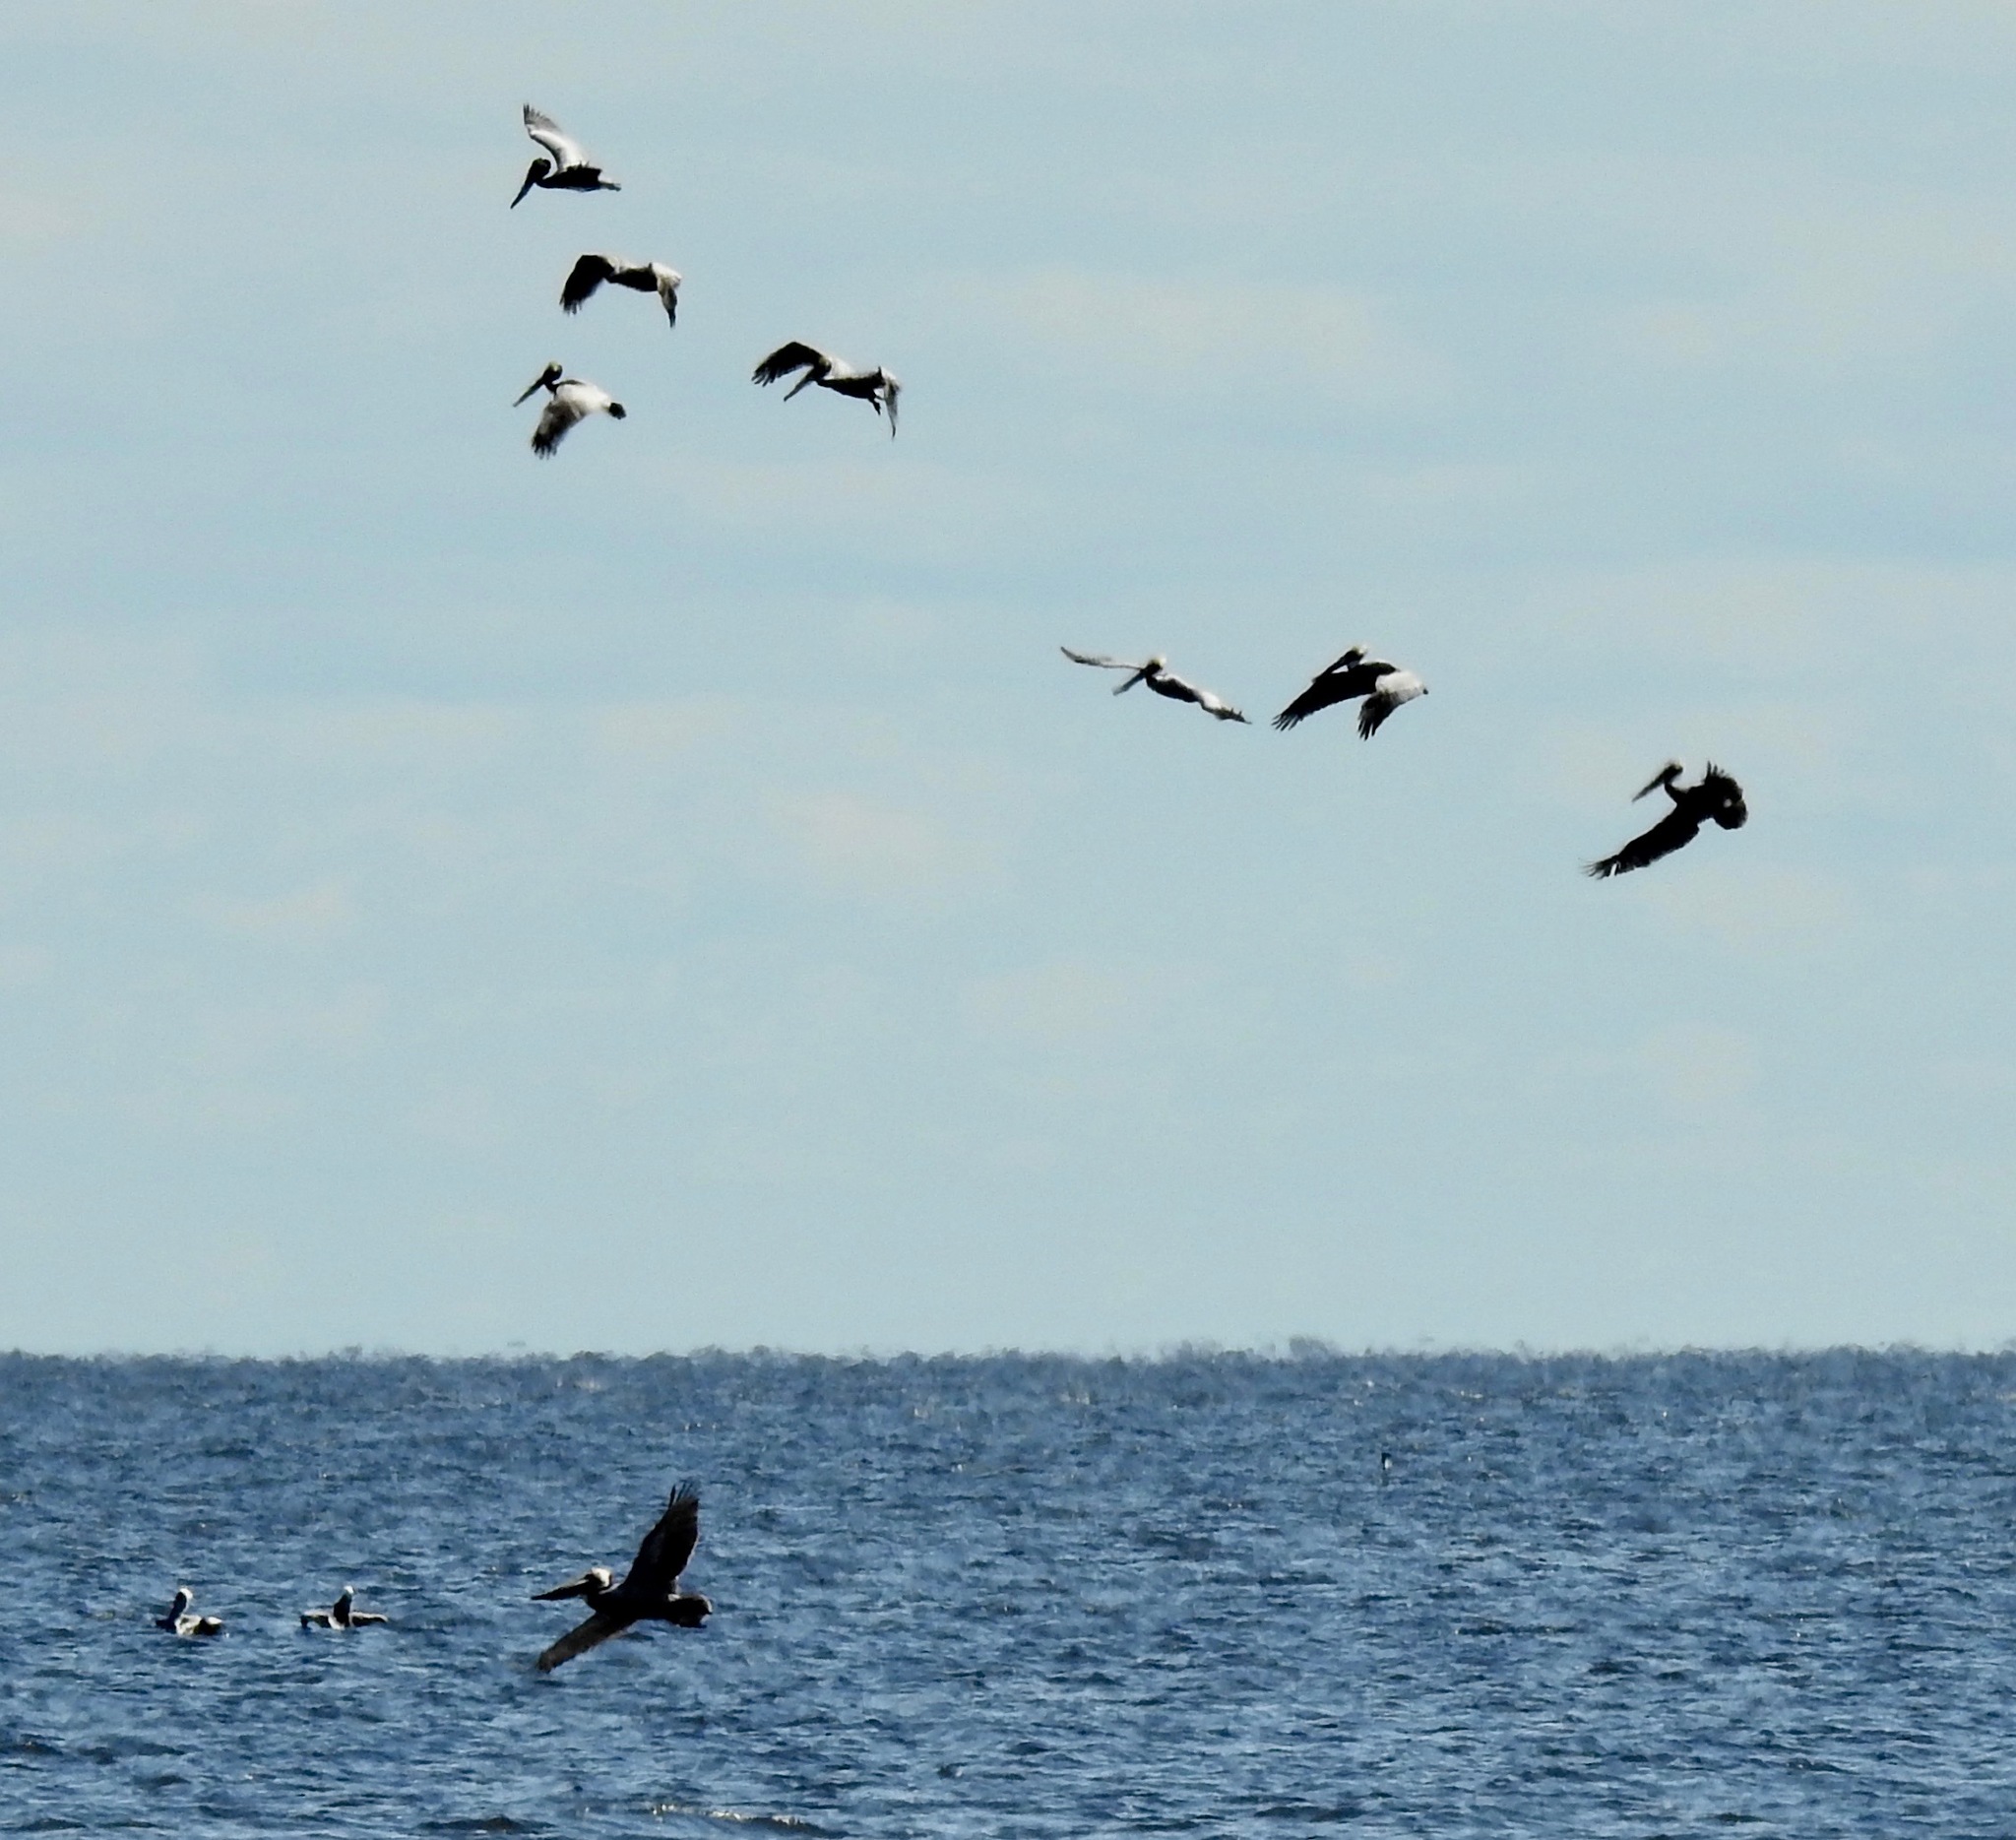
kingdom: Animalia
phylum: Chordata
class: Aves
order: Pelecaniformes
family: Pelecanidae
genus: Pelecanus
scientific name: Pelecanus occidentalis
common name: Brown pelican
